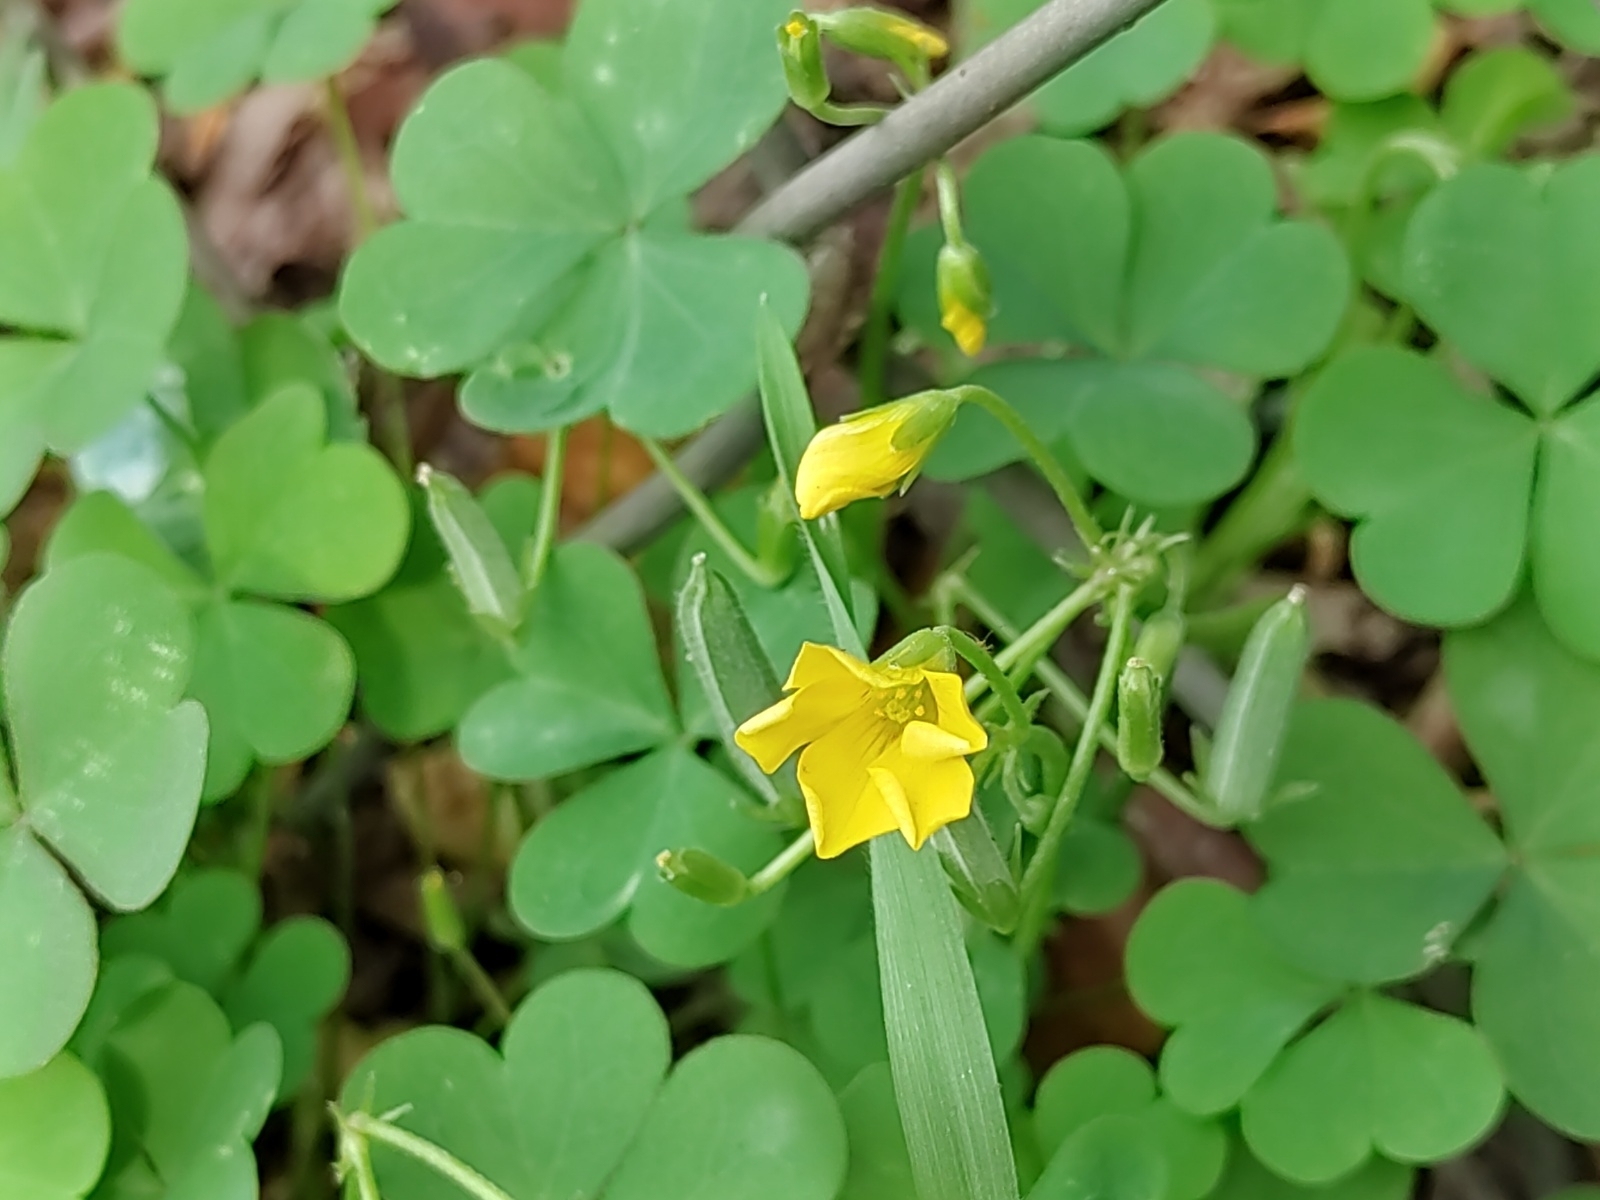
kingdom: Plantae
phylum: Tracheophyta
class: Magnoliopsida
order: Oxalidales
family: Oxalidaceae
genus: Oxalis
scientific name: Oxalis stricta
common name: Upright yellow-sorrel
